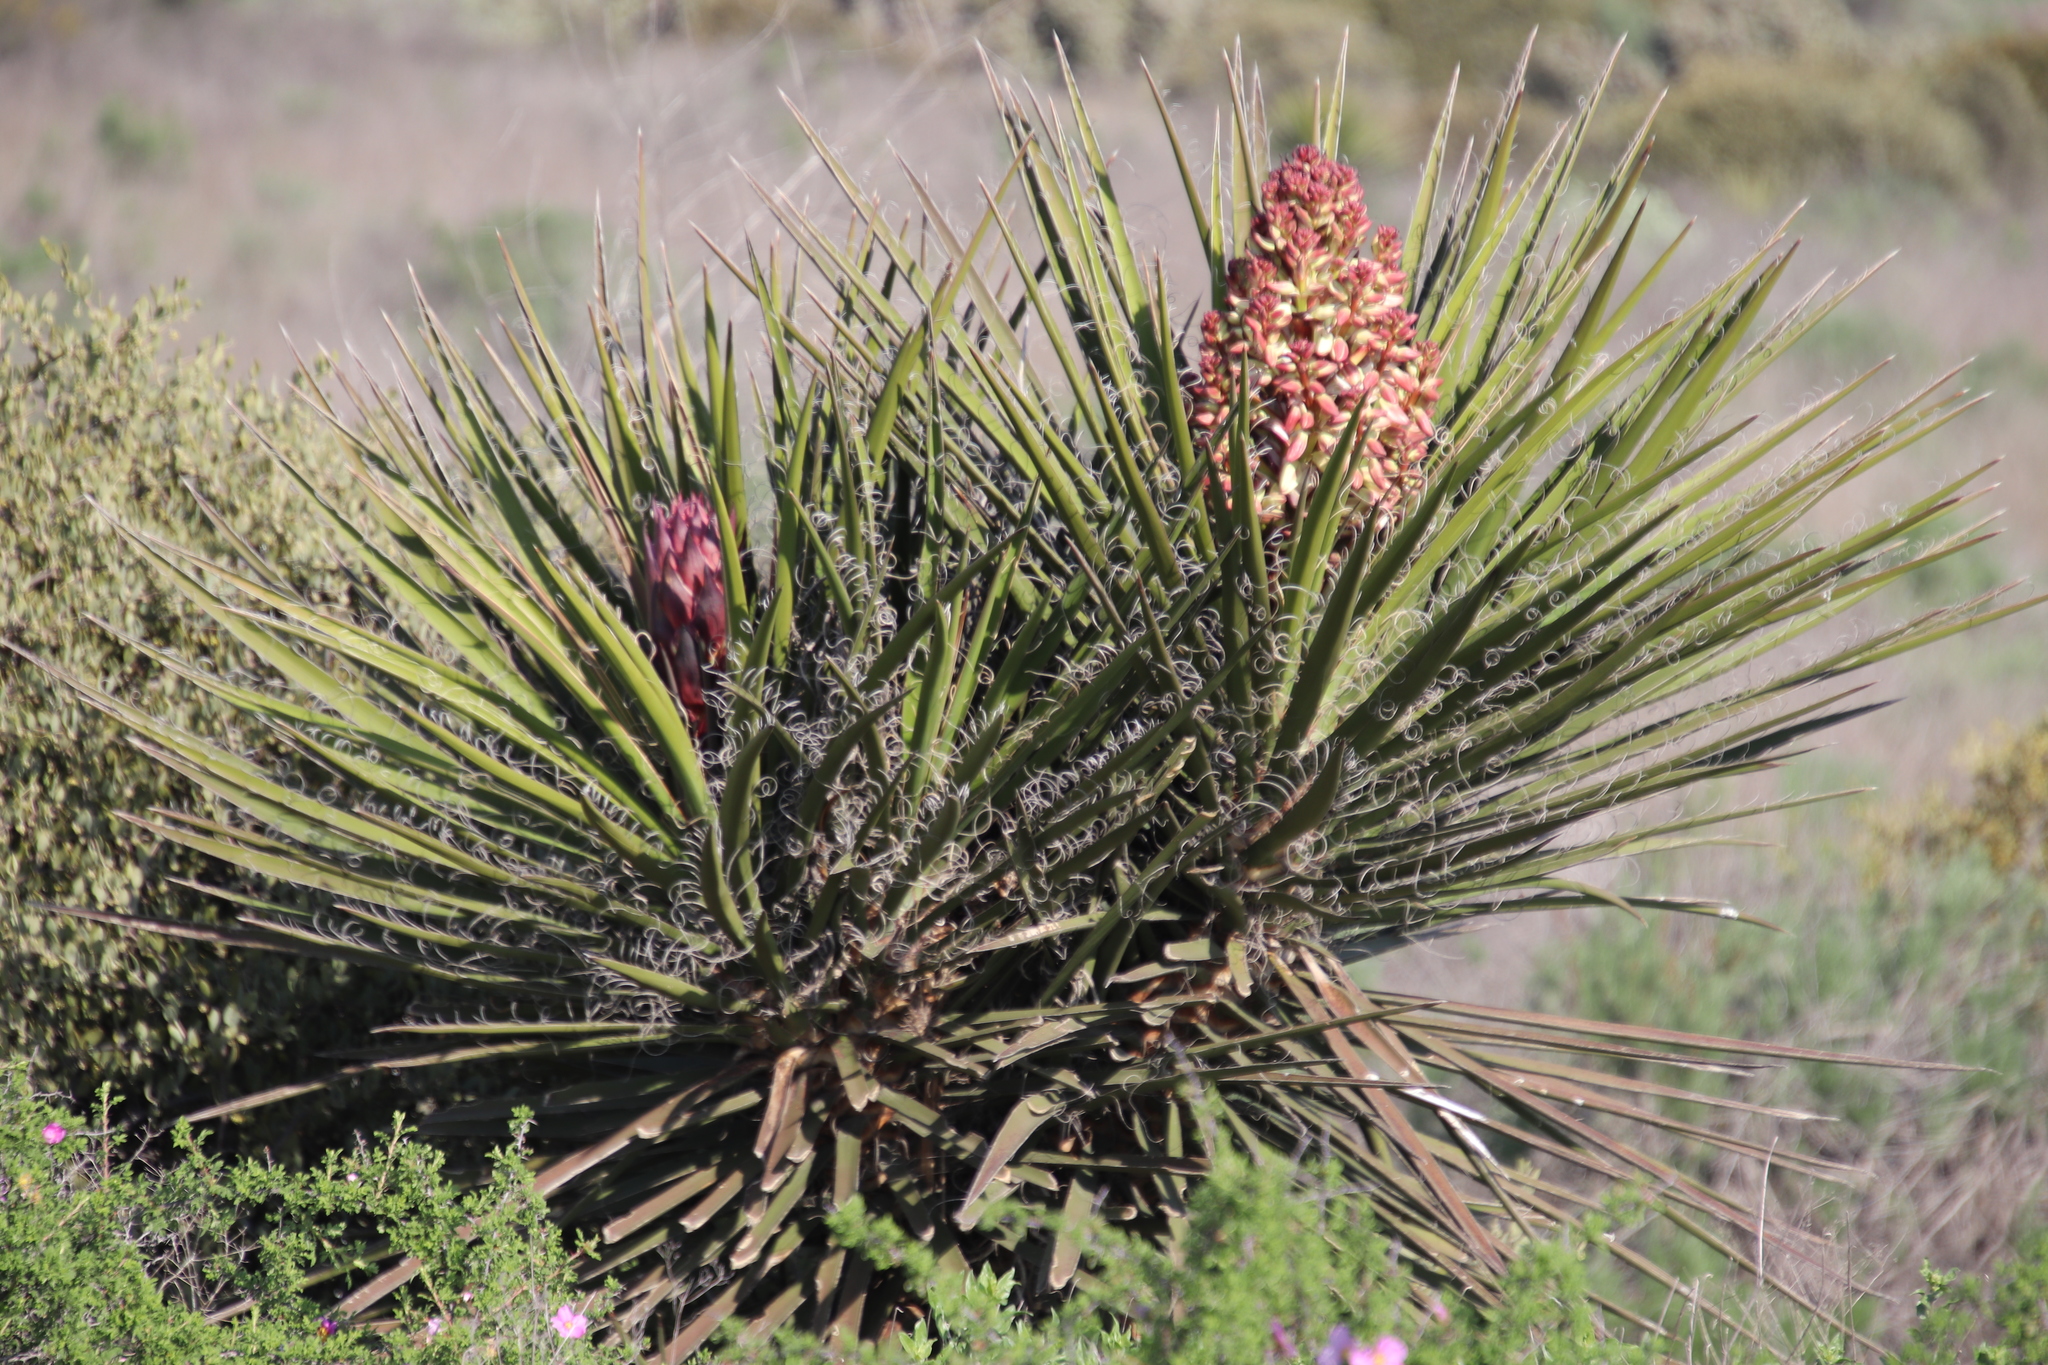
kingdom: Plantae
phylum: Tracheophyta
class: Liliopsida
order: Asparagales
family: Asparagaceae
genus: Yucca
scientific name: Yucca schidigera
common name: Mojave yucca
